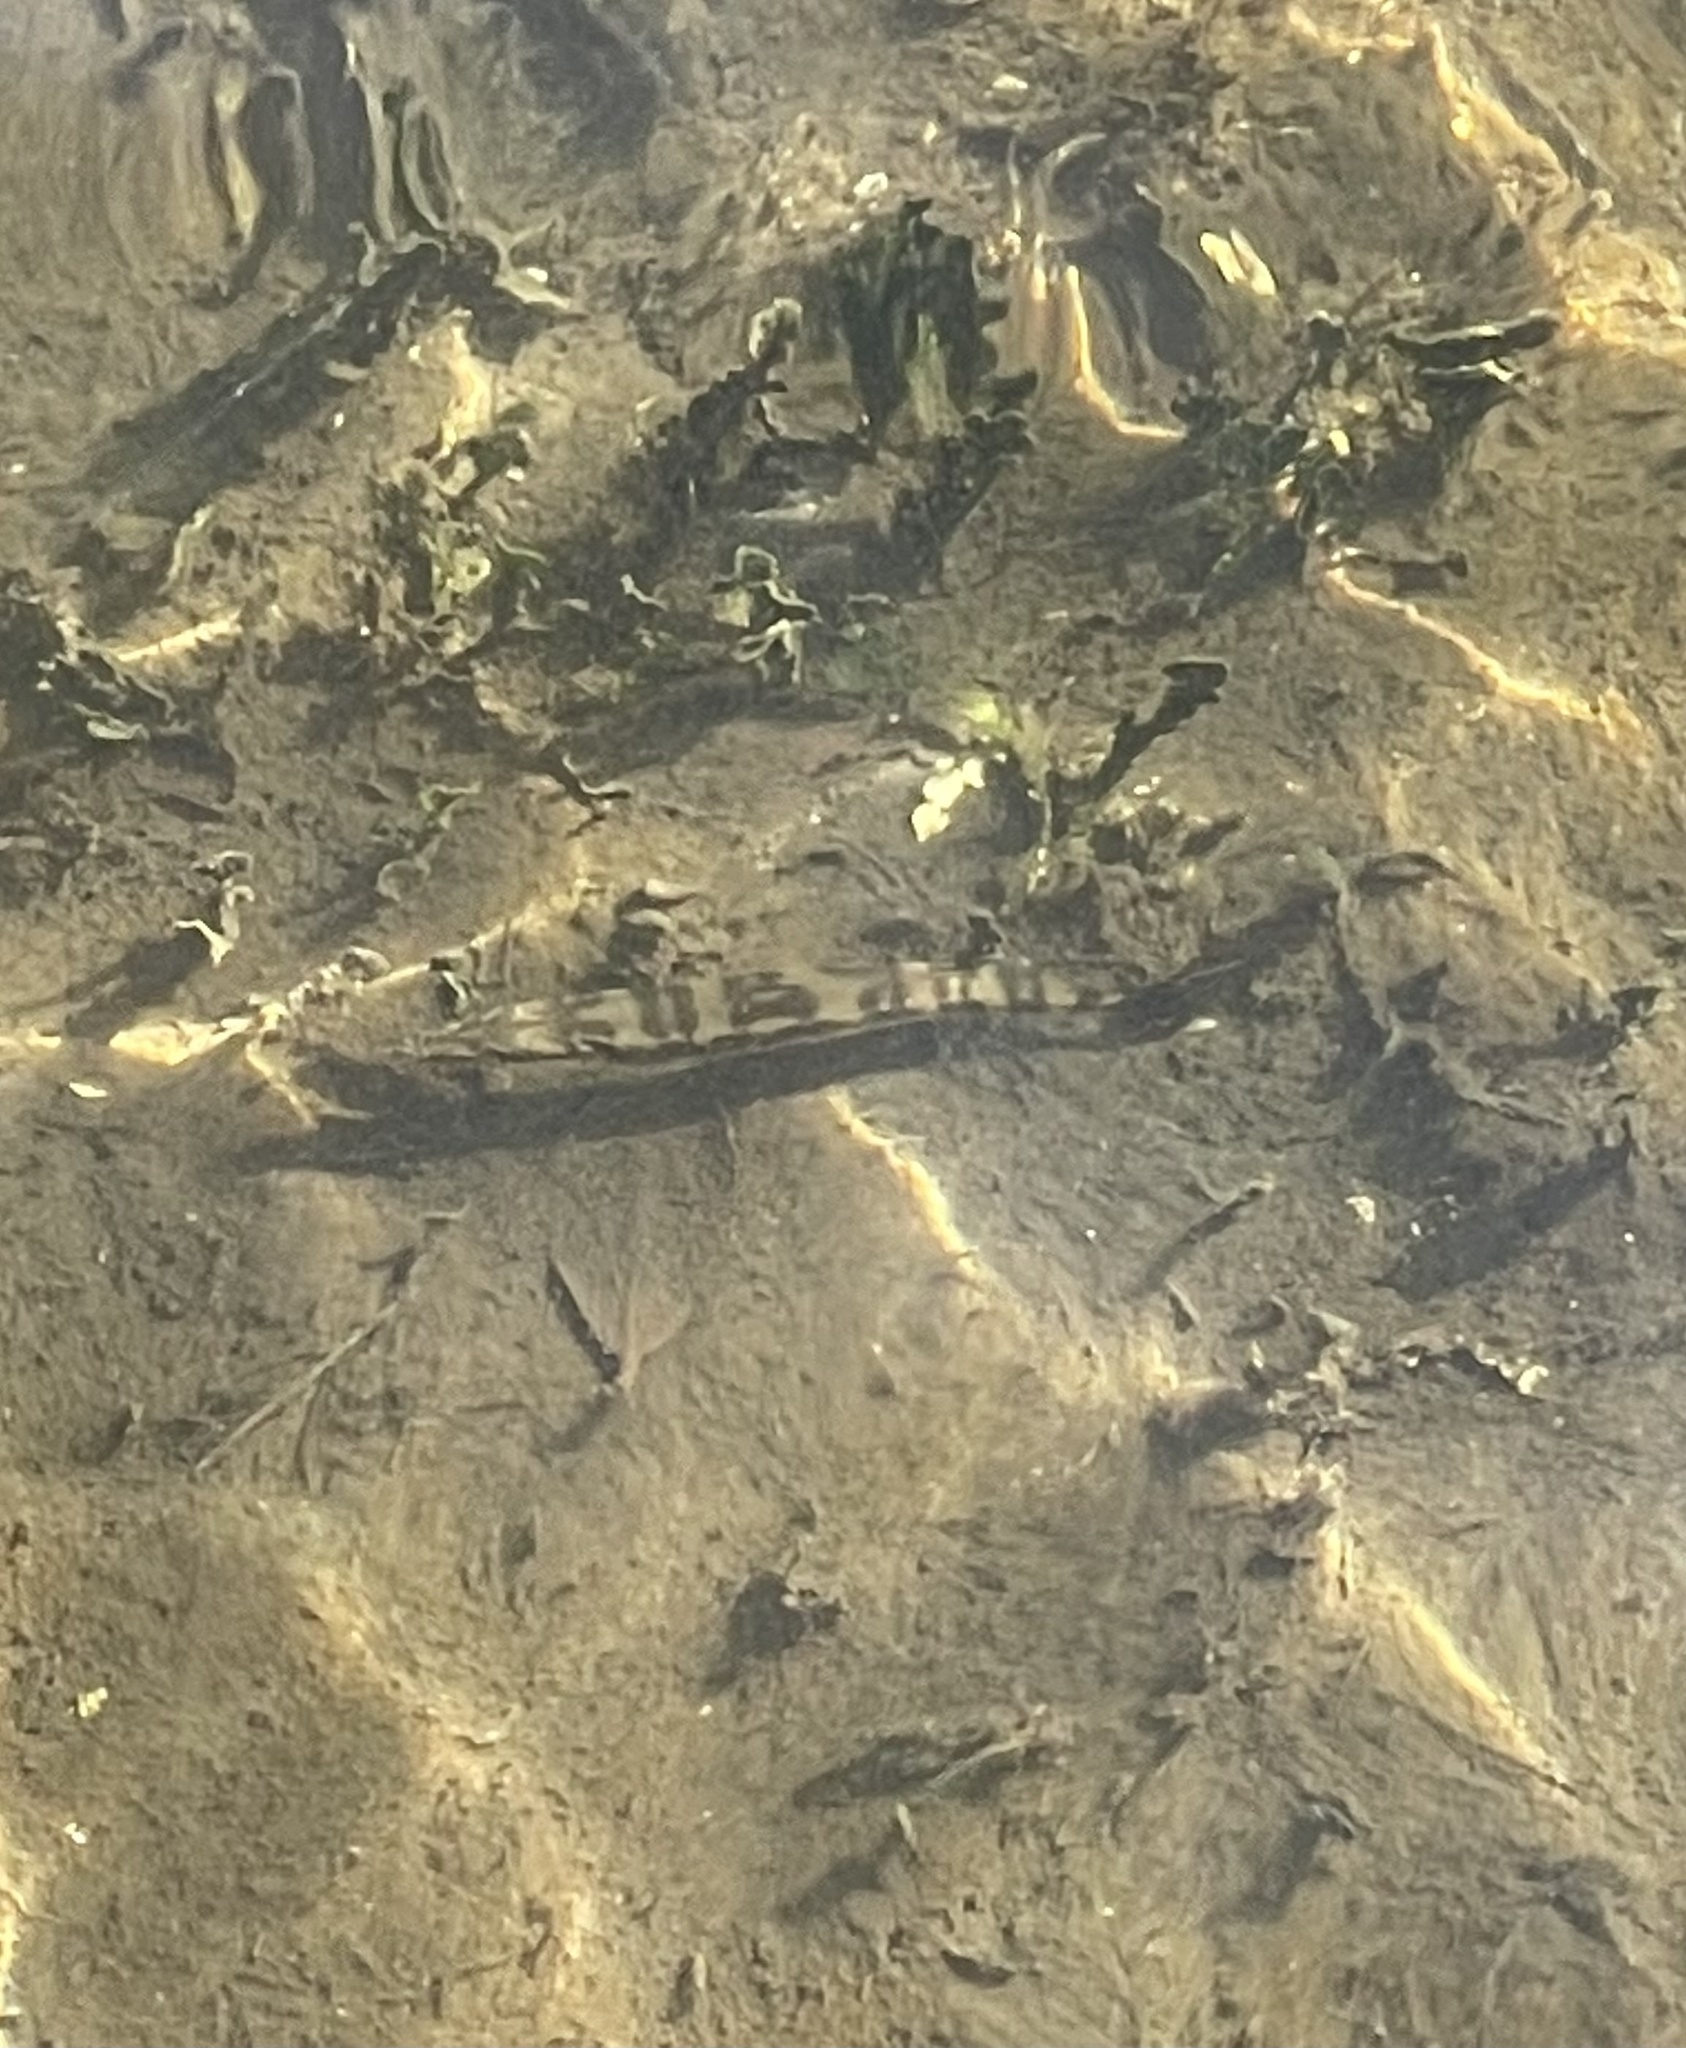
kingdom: Animalia
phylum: Chordata
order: Perciformes
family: Sphyraenidae
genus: Sphyraena
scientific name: Sphyraena barracuda
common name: Great barracuda
